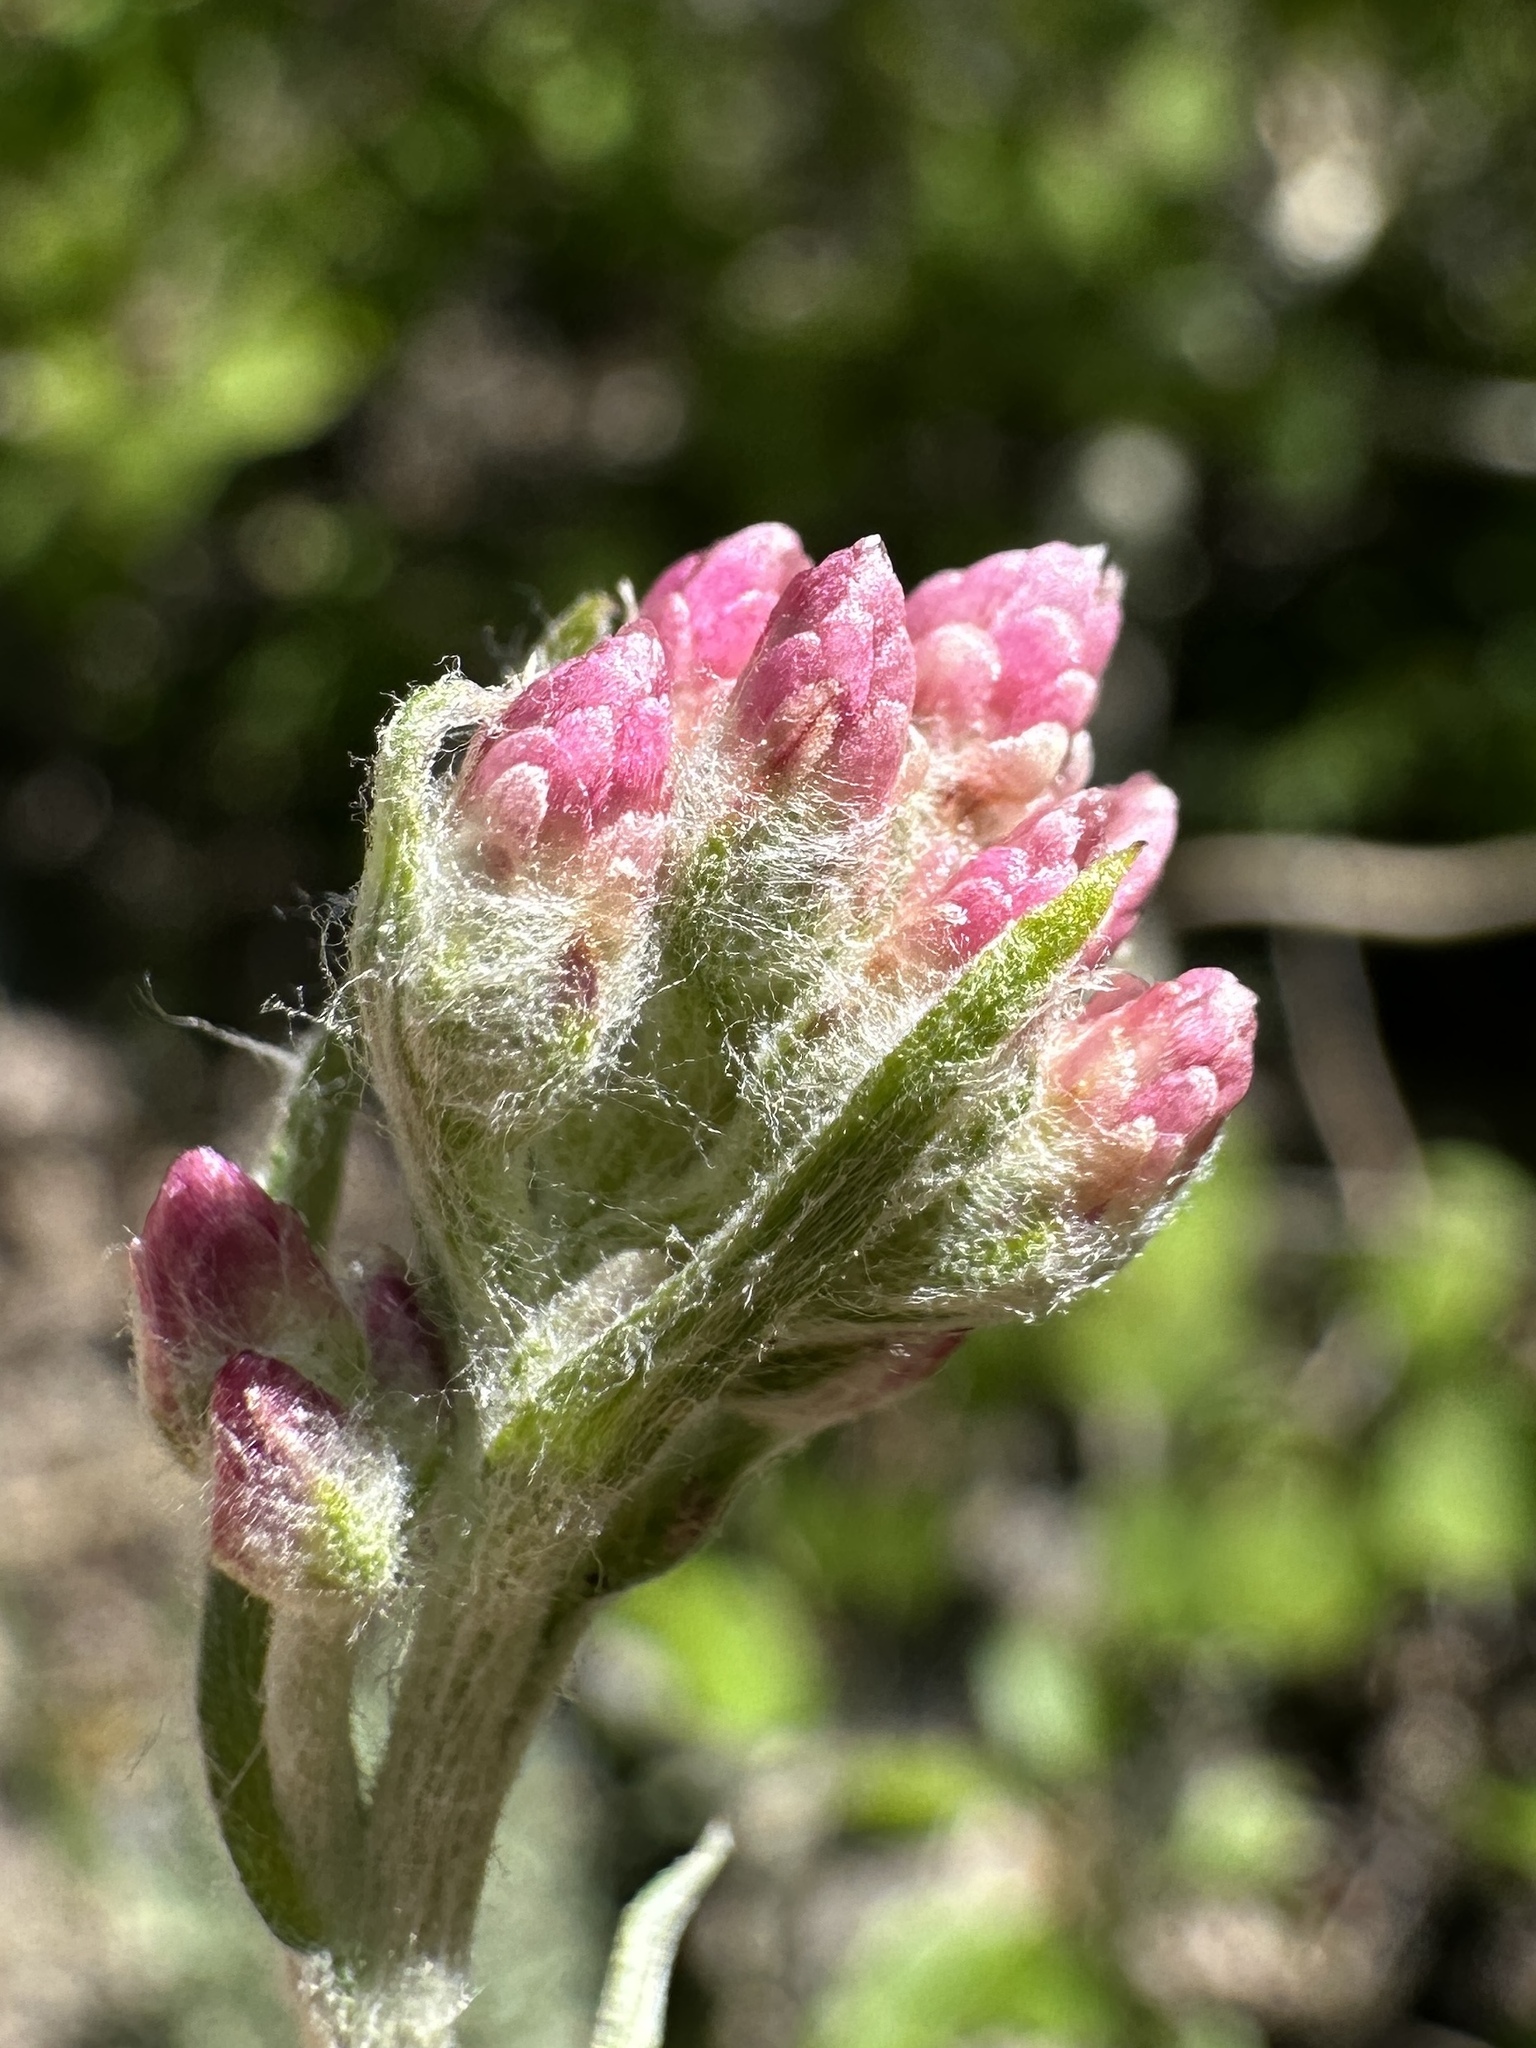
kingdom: Plantae
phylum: Tracheophyta
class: Magnoliopsida
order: Asterales
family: Asteraceae
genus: Antennaria
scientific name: Antennaria rosea
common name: Rosy pussytoes
